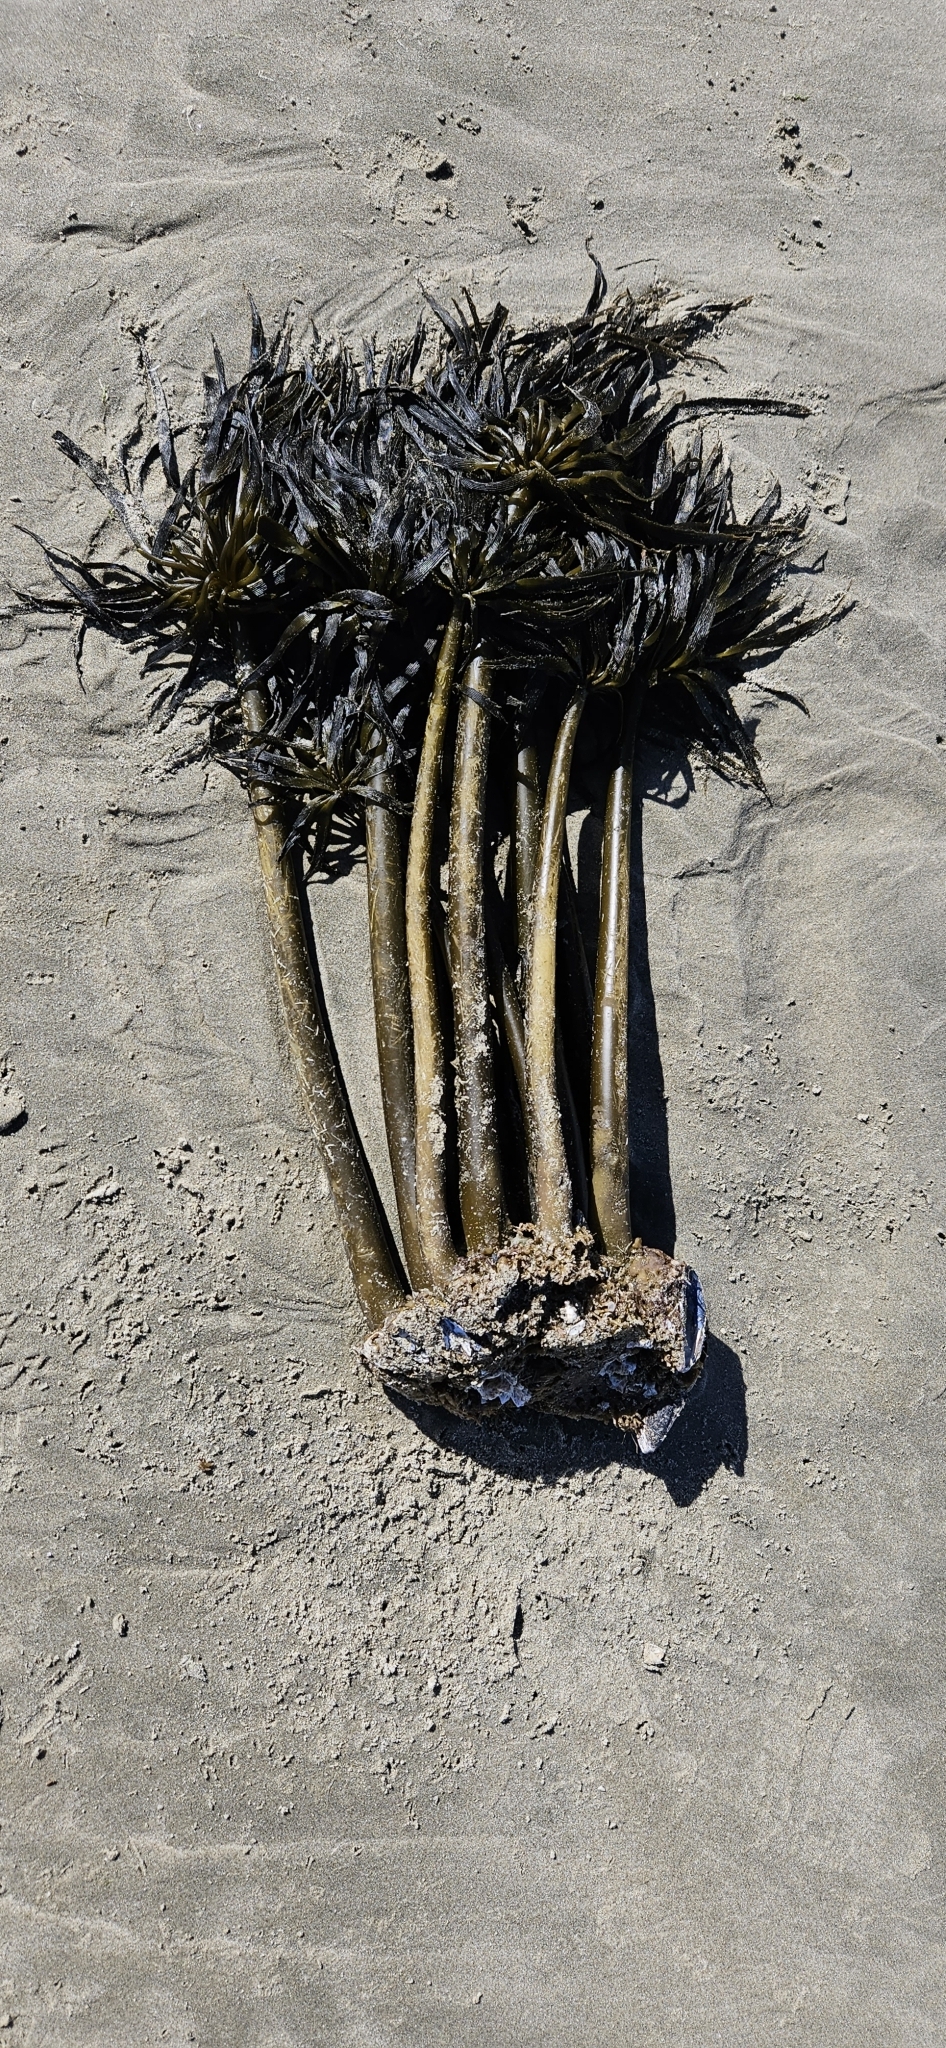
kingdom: Chromista
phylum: Ochrophyta
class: Phaeophyceae
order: Laminariales
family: Laminariaceae
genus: Postelsia
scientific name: Postelsia palmiformis
